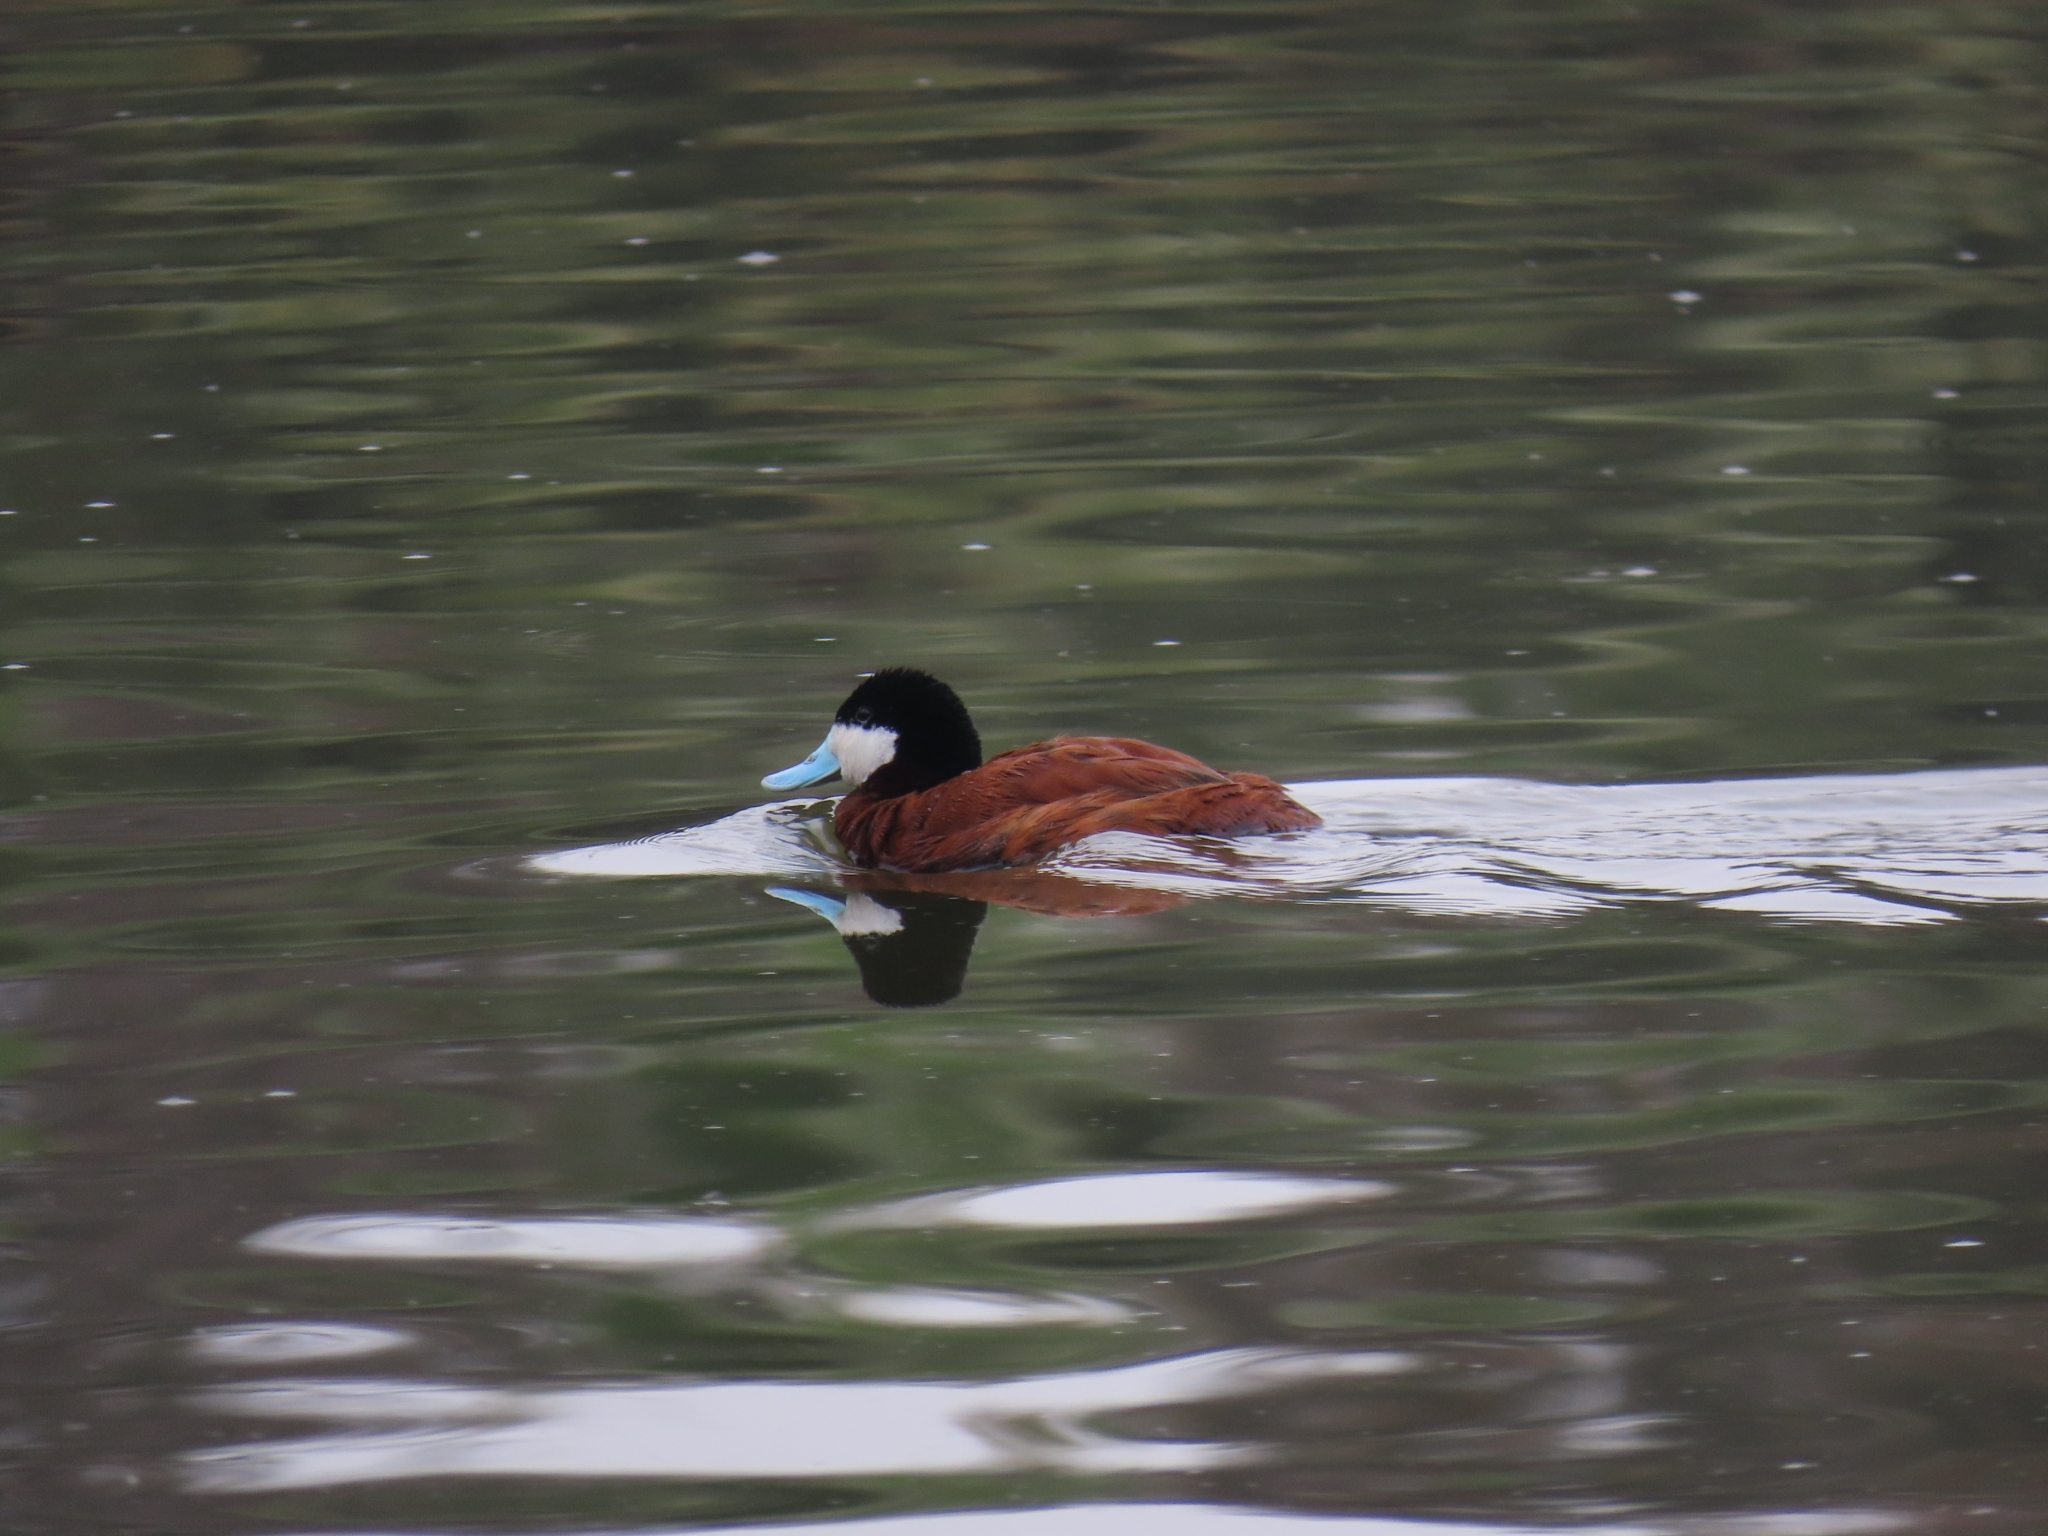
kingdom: Animalia
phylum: Chordata
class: Aves
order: Anseriformes
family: Anatidae
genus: Oxyura
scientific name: Oxyura jamaicensis
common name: Ruddy duck
